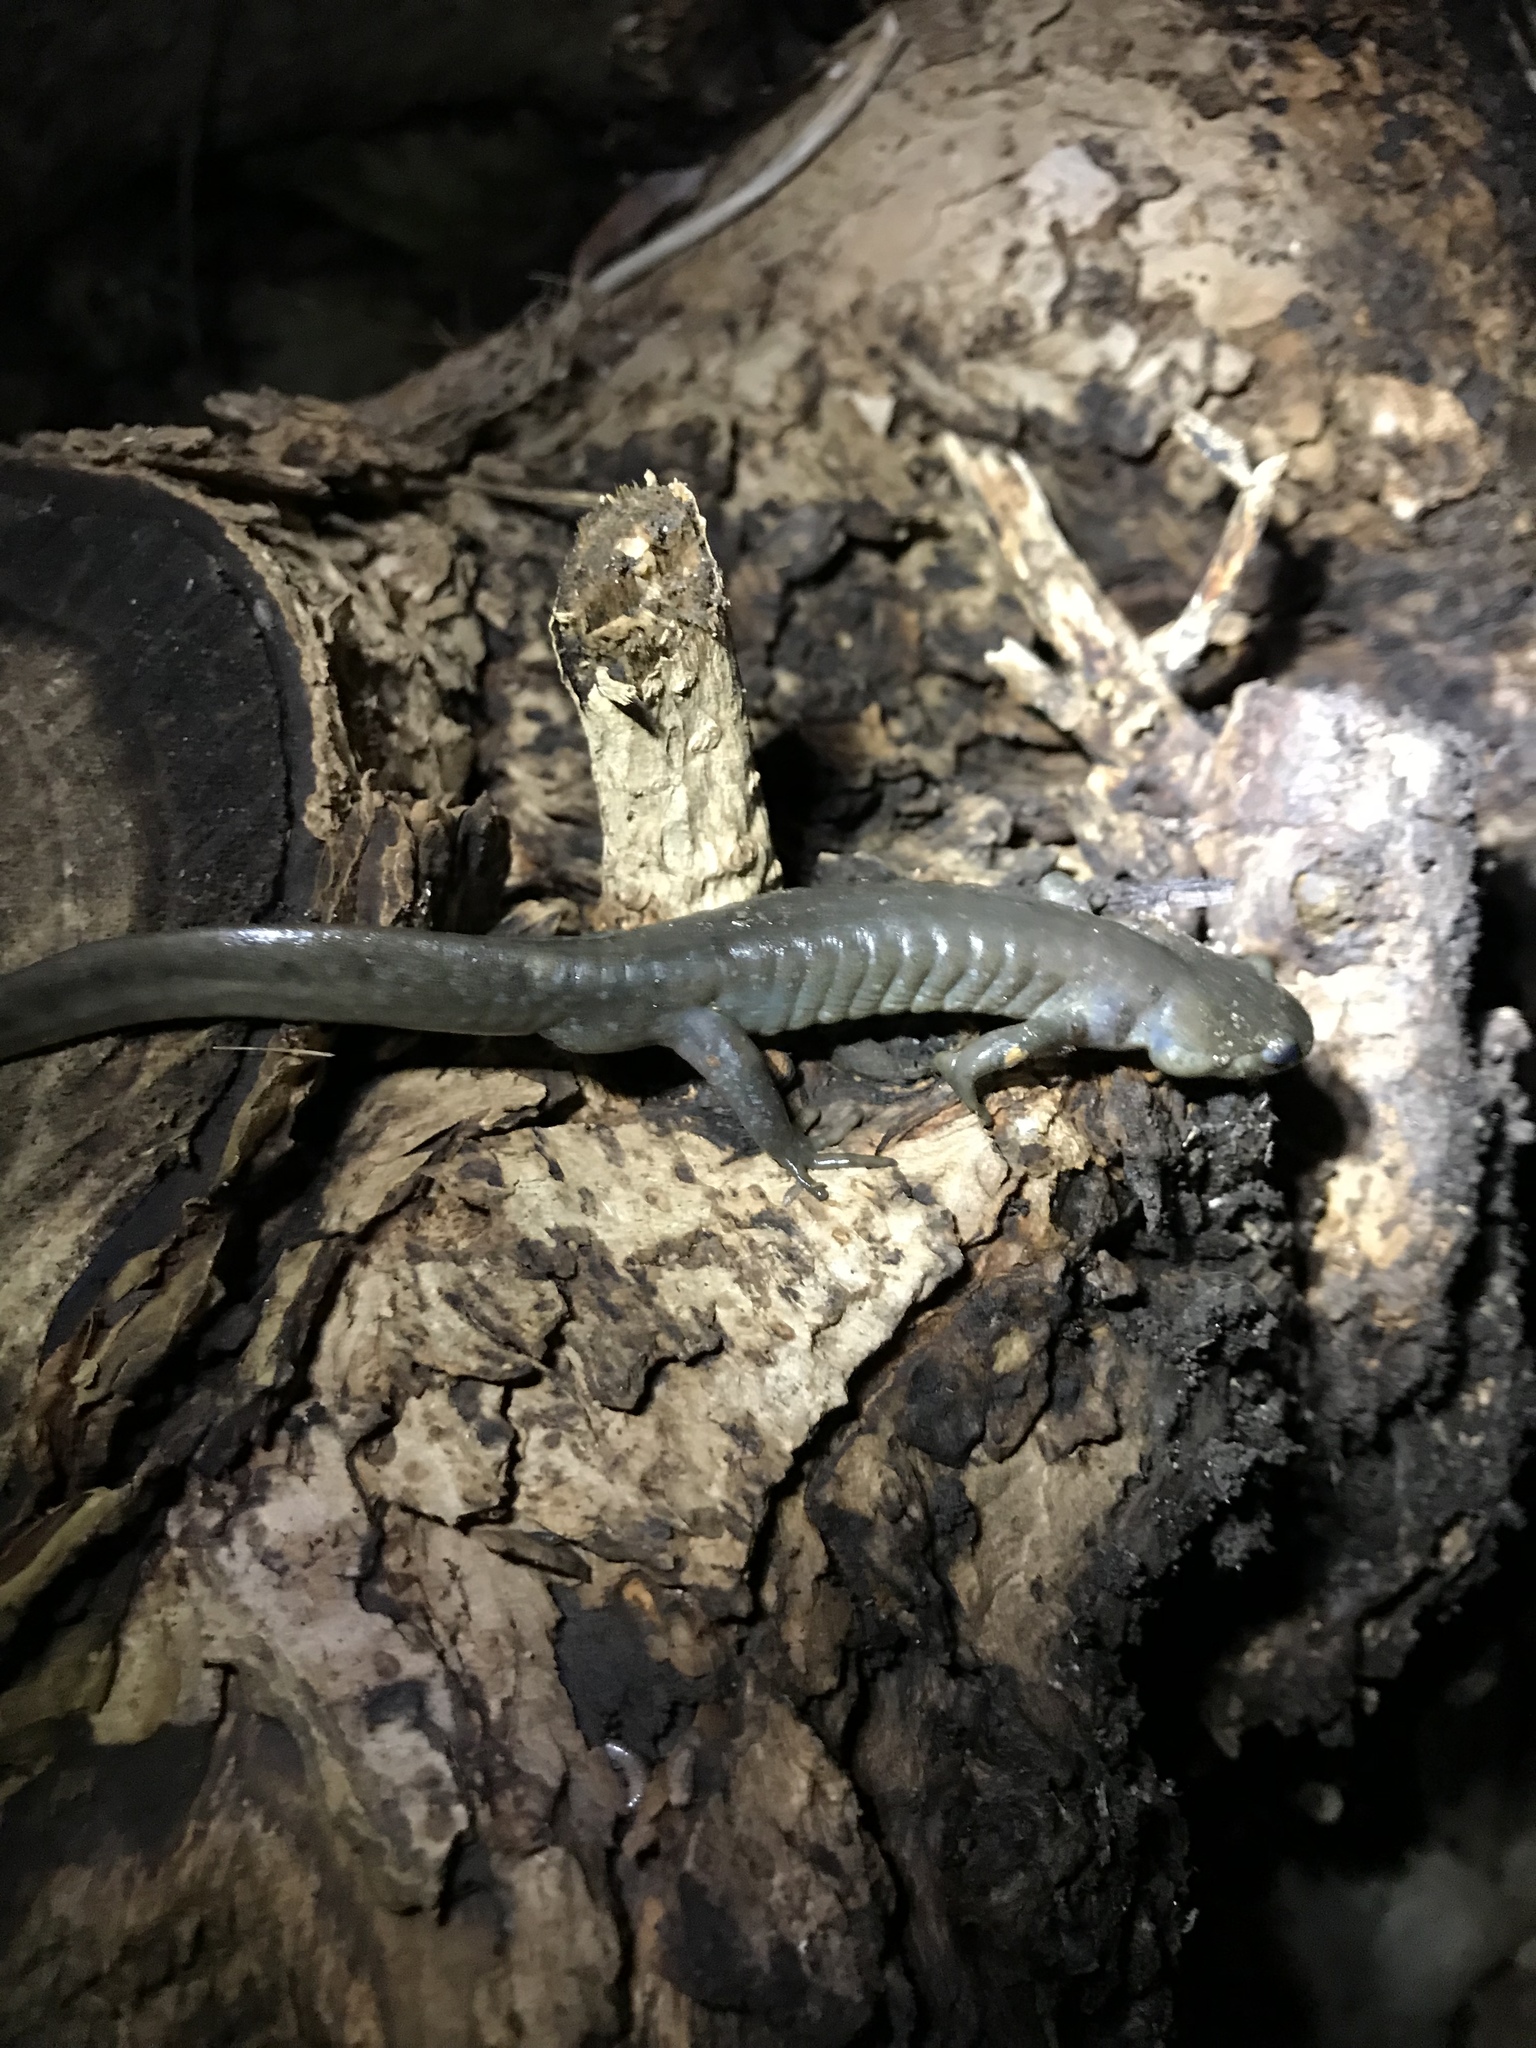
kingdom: Animalia
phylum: Chordata
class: Amphibia
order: Caudata
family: Ambystomatidae
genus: Ambystoma
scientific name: Ambystoma jeffersonianum
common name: Jefferson salamander
